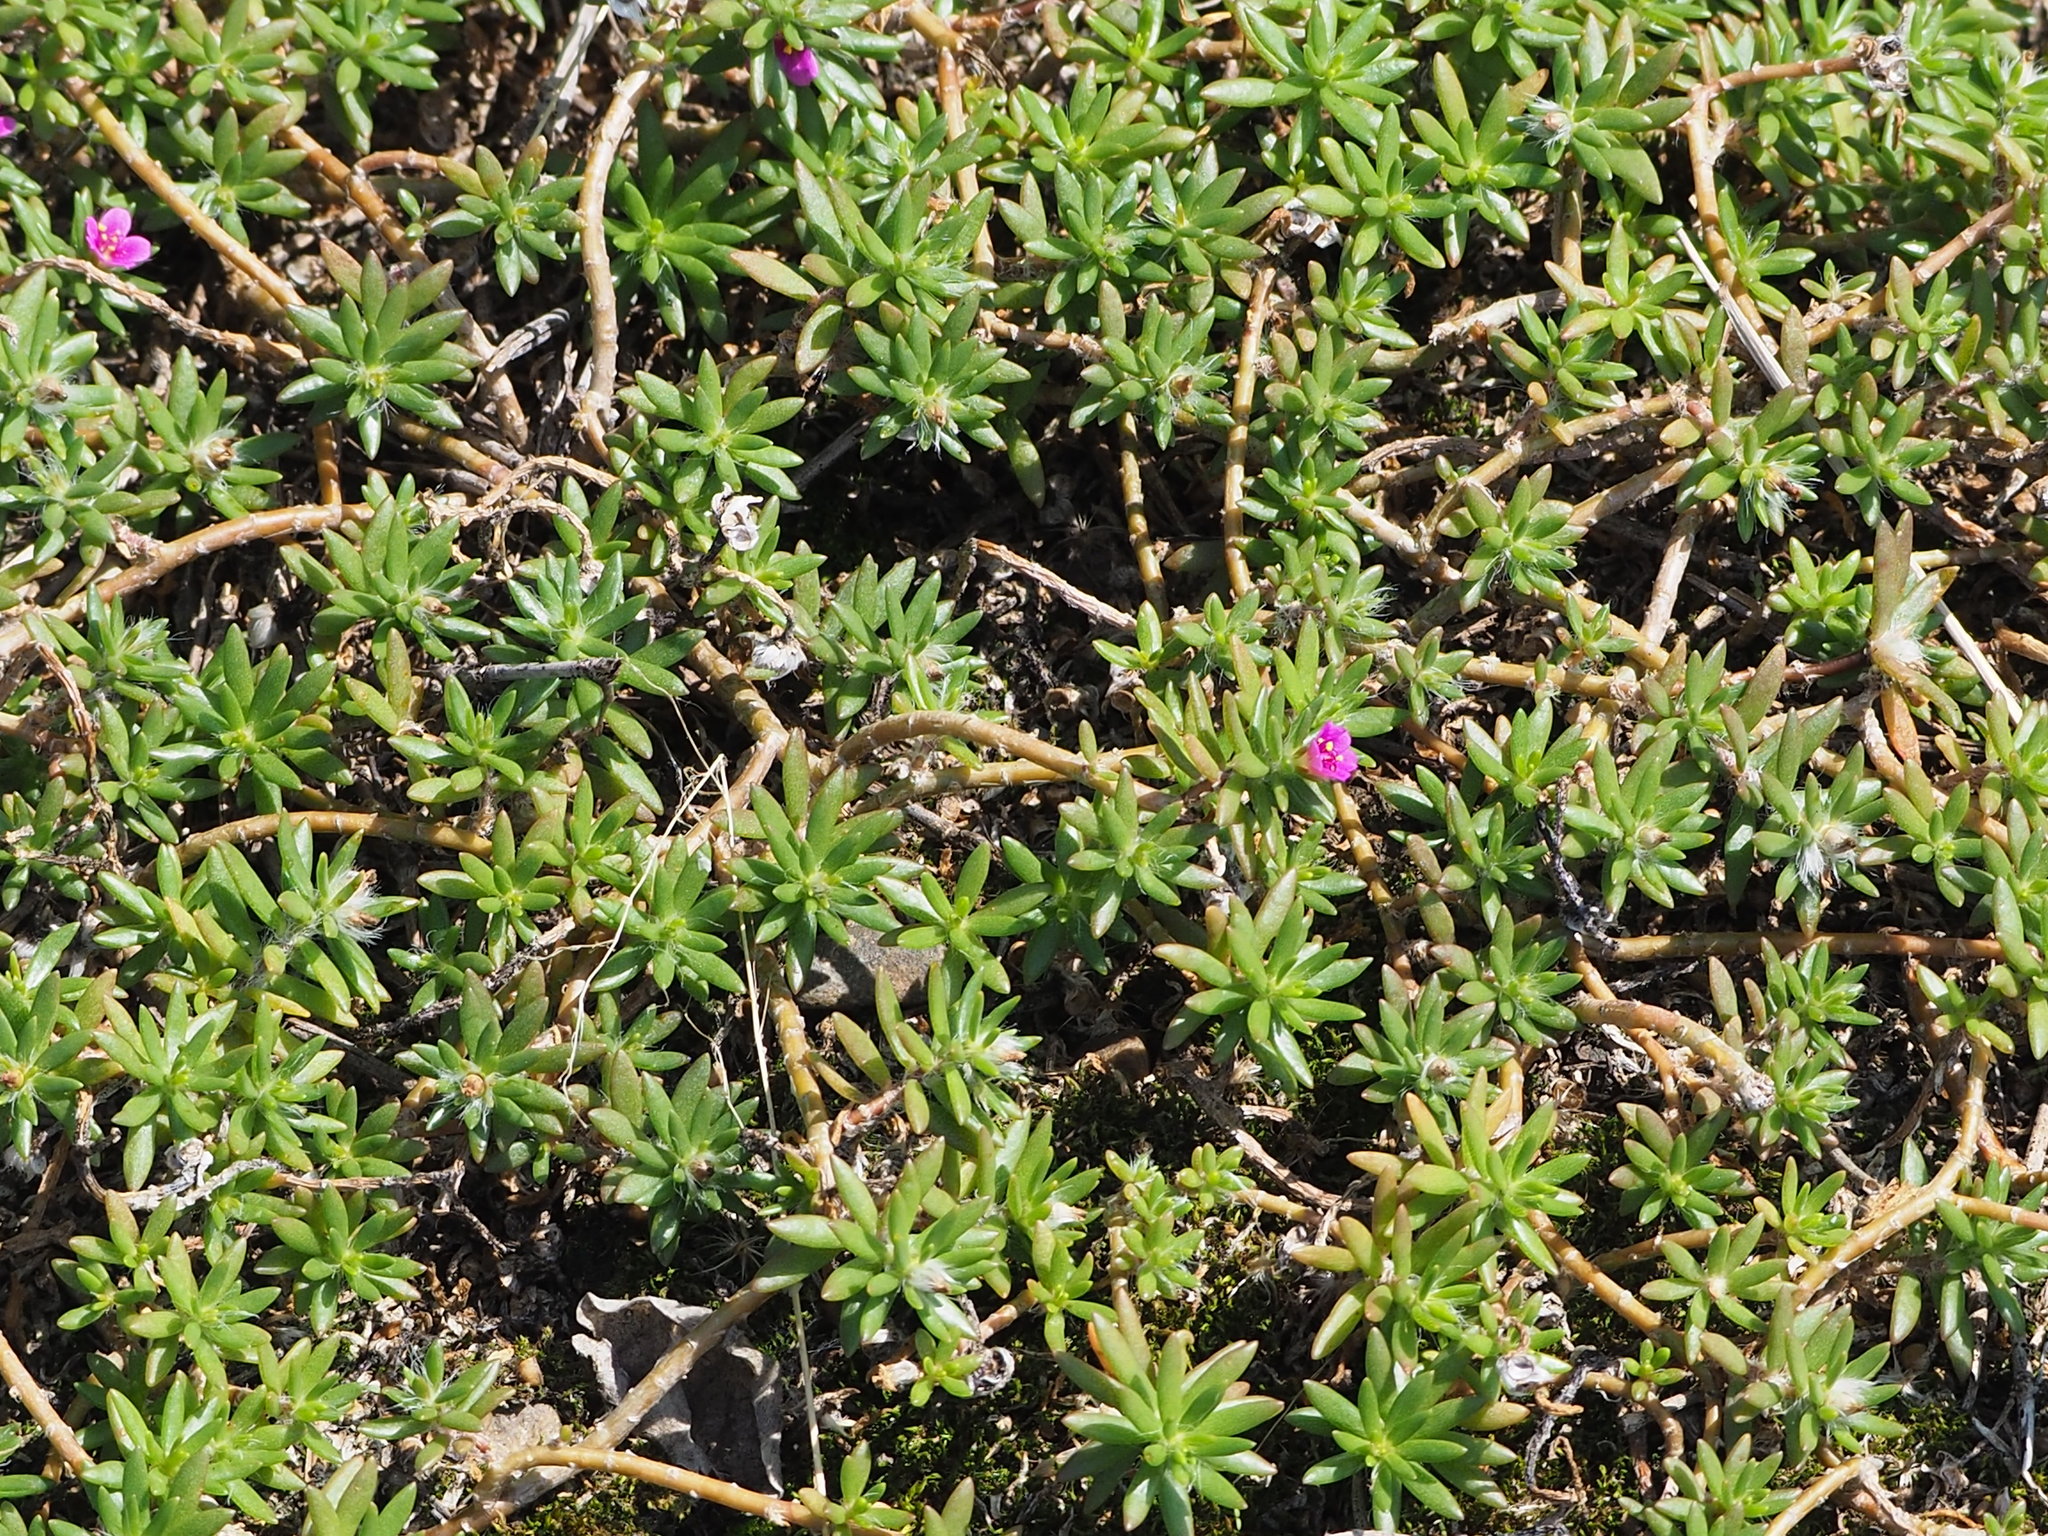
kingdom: Plantae
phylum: Tracheophyta
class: Magnoliopsida
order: Caryophyllales
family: Portulacaceae
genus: Portulaca
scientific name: Portulaca pilosa
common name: Kiss me quick
